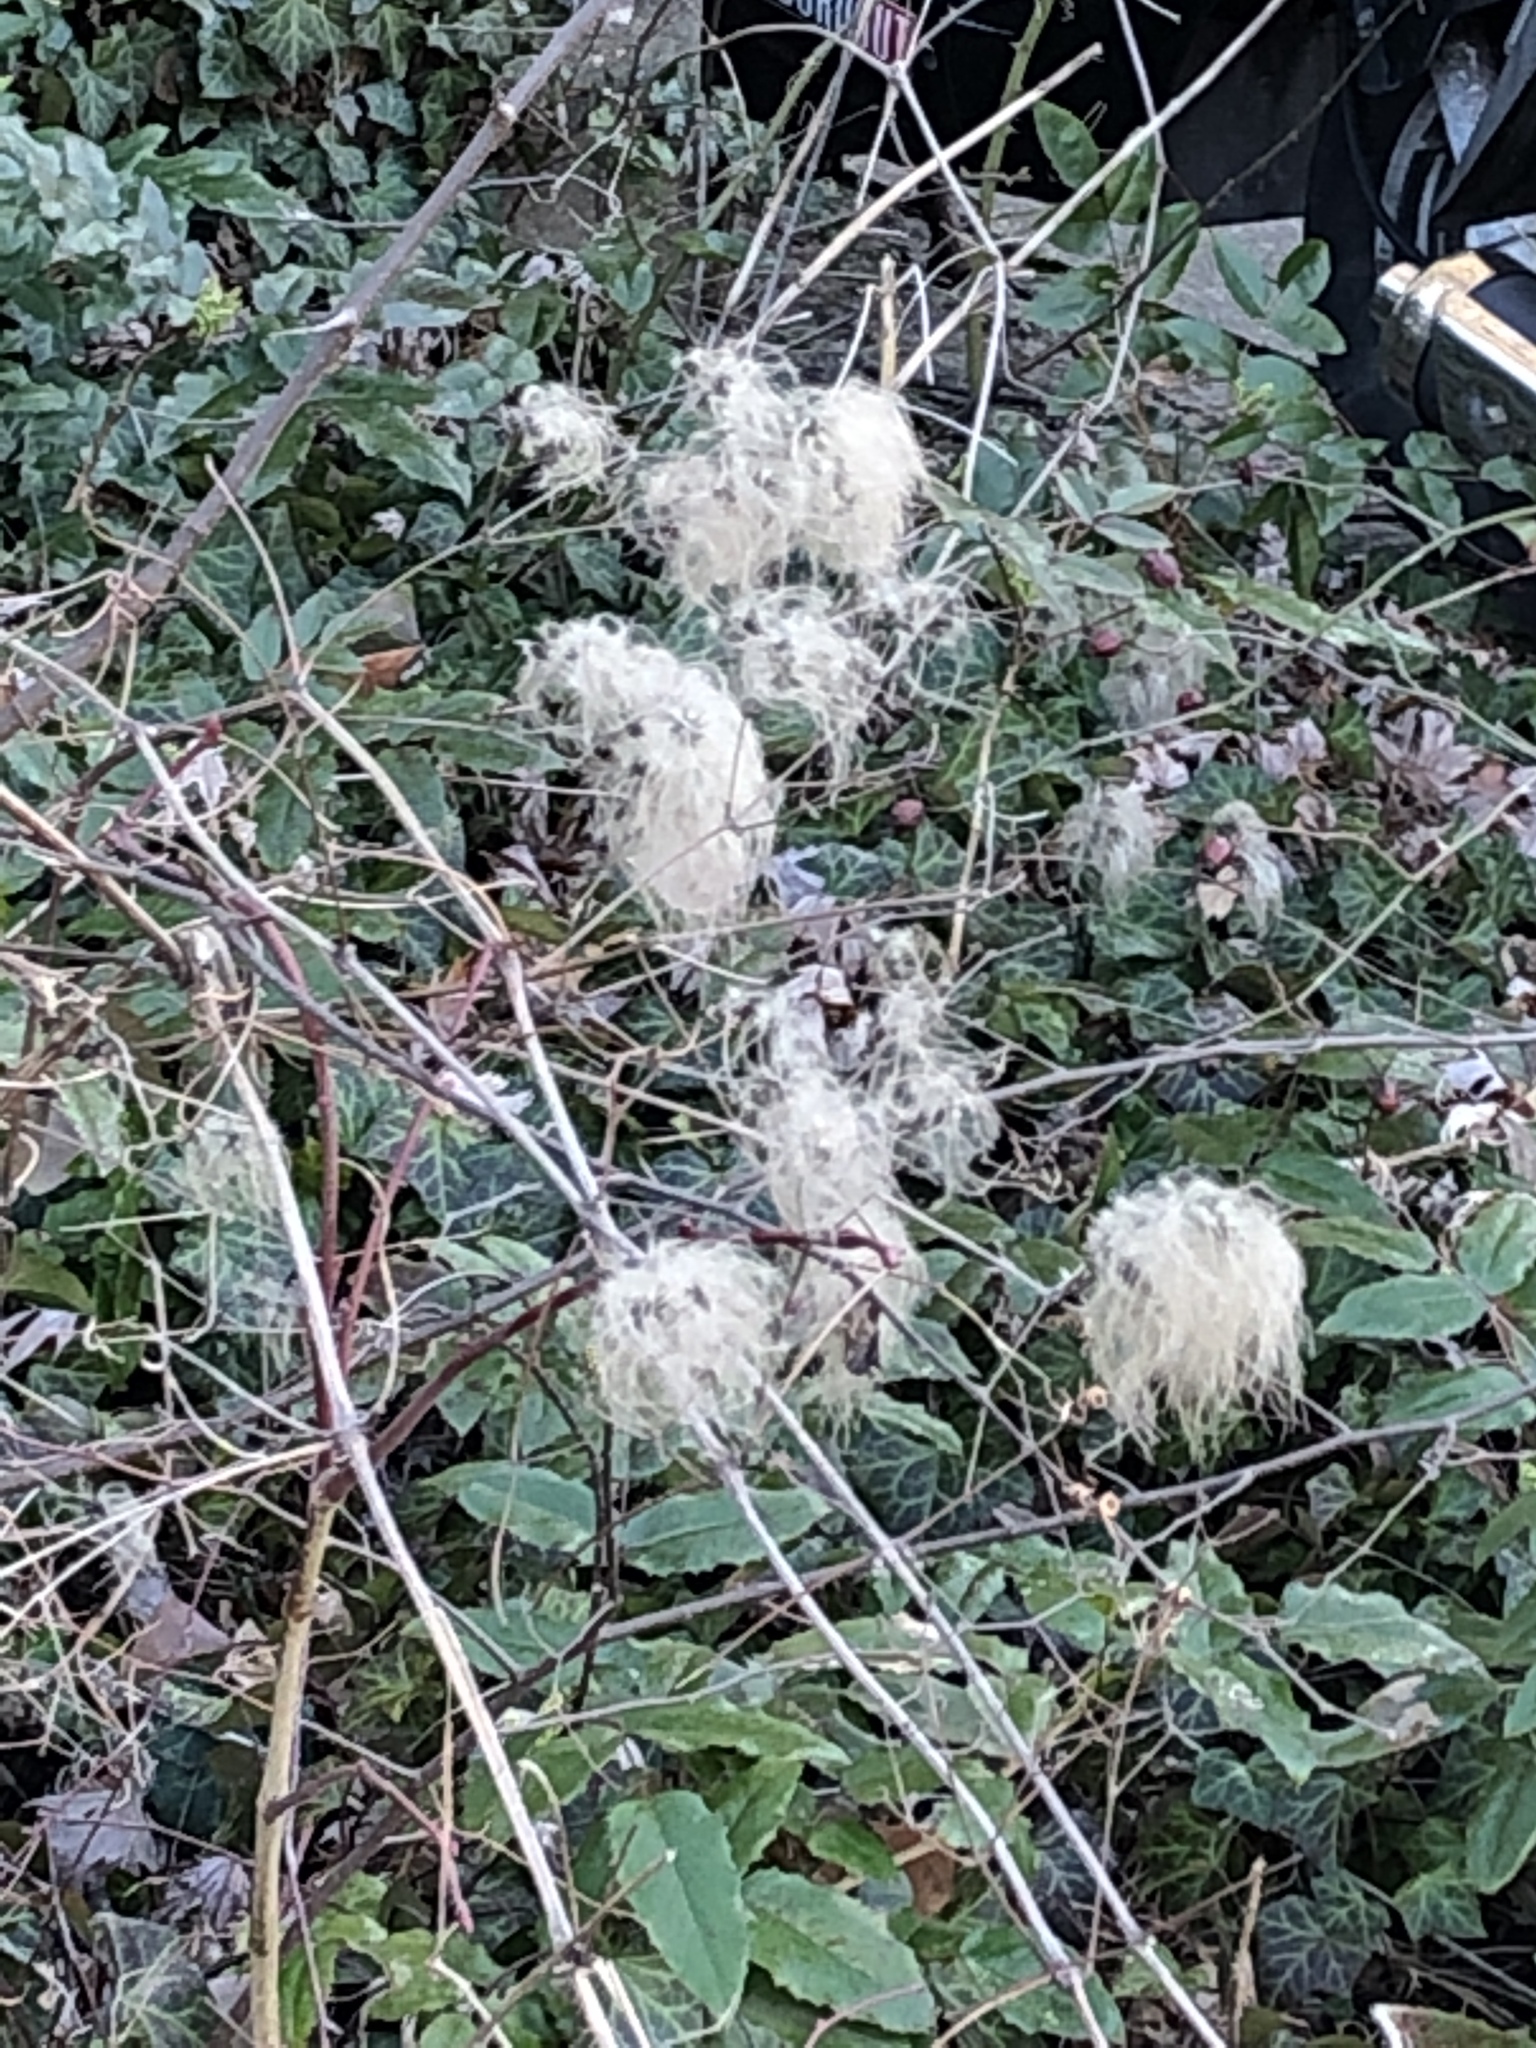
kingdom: Plantae
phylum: Tracheophyta
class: Magnoliopsida
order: Ranunculales
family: Ranunculaceae
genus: Clematis
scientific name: Clematis vitalba
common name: Evergreen clematis
